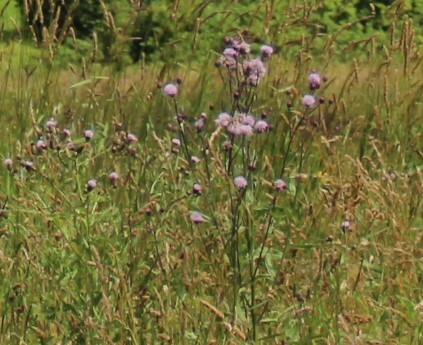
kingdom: Plantae
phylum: Tracheophyta
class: Magnoliopsida
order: Asterales
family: Asteraceae
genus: Cirsium
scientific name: Cirsium arvense
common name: Creeping thistle
